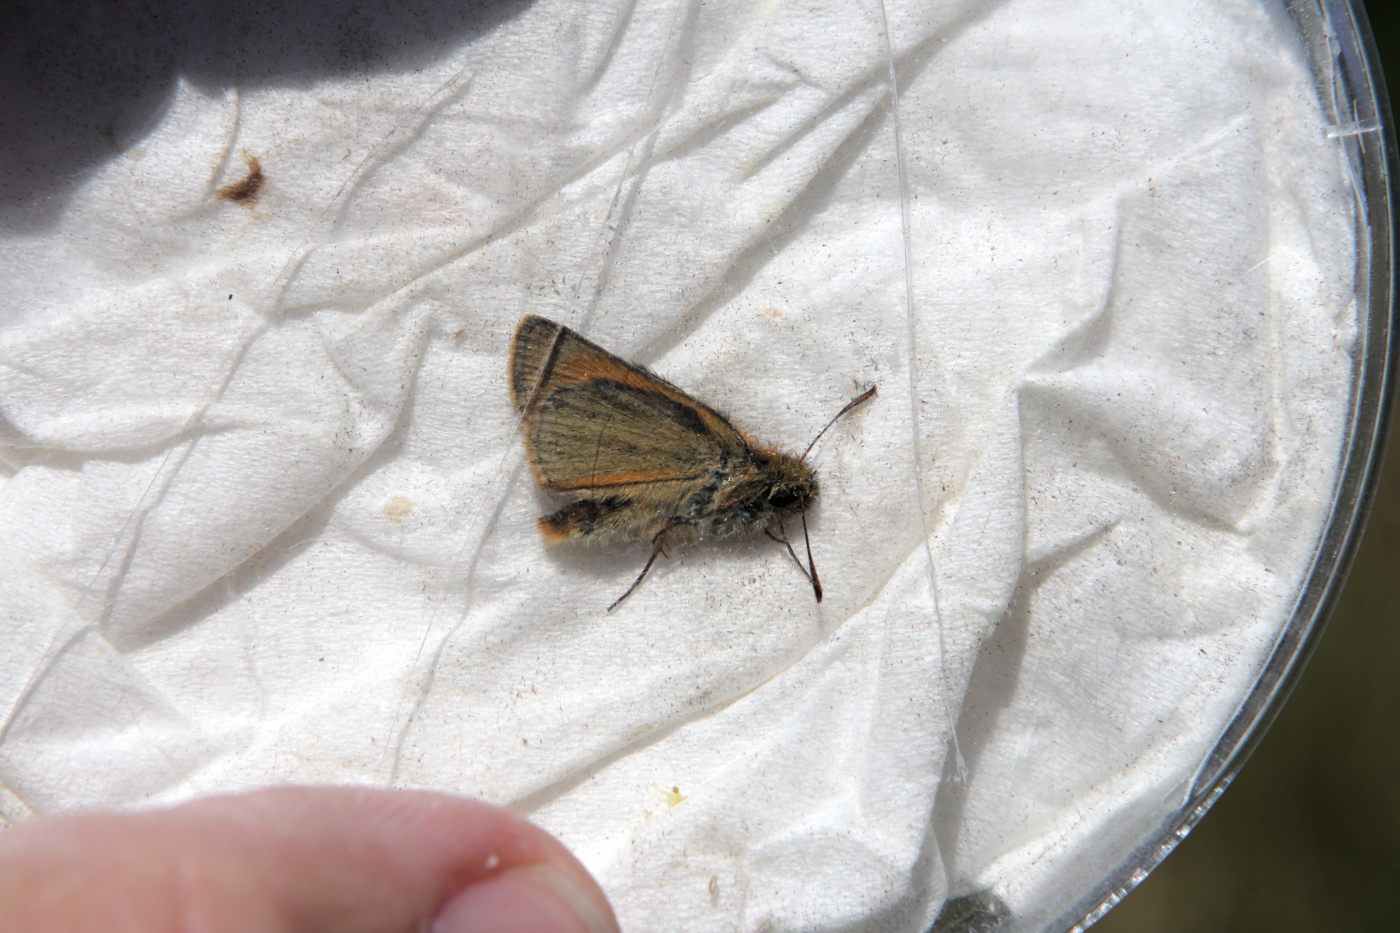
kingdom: Animalia
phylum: Arthropoda
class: Insecta
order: Lepidoptera
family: Hesperiidae
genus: Thymelicus
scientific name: Thymelicus sylvestris
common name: Small skipper
